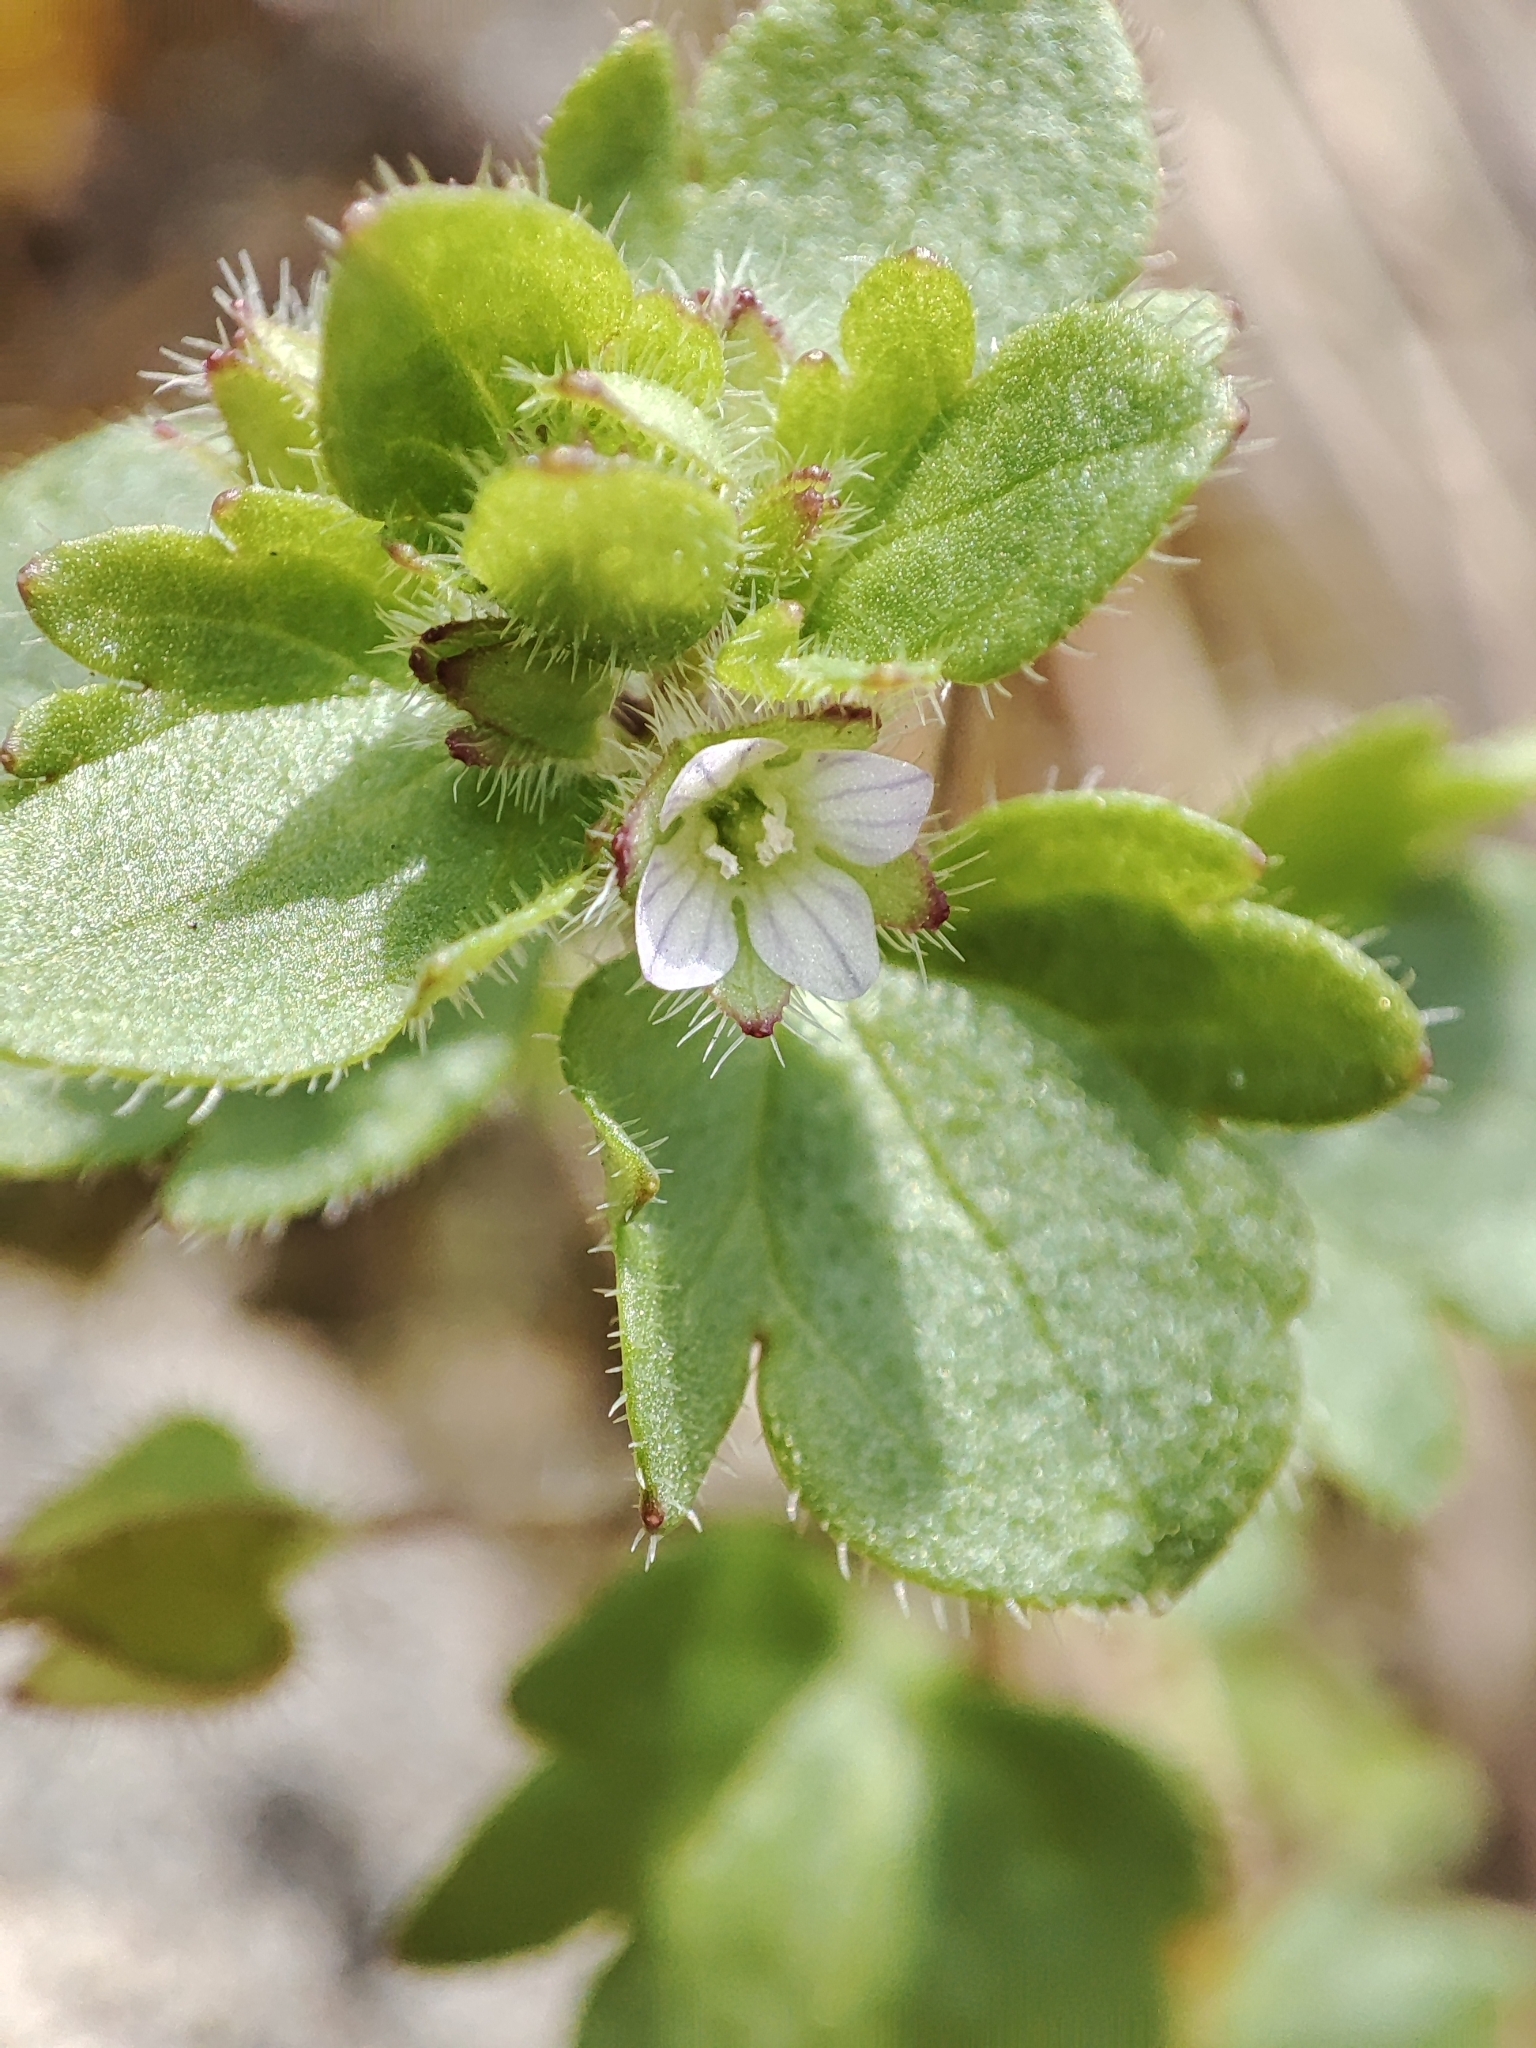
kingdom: Plantae
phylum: Tracheophyta
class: Magnoliopsida
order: Lamiales
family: Plantaginaceae
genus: Veronica
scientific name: Veronica sublobata
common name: False ivy-leaved speedwell
